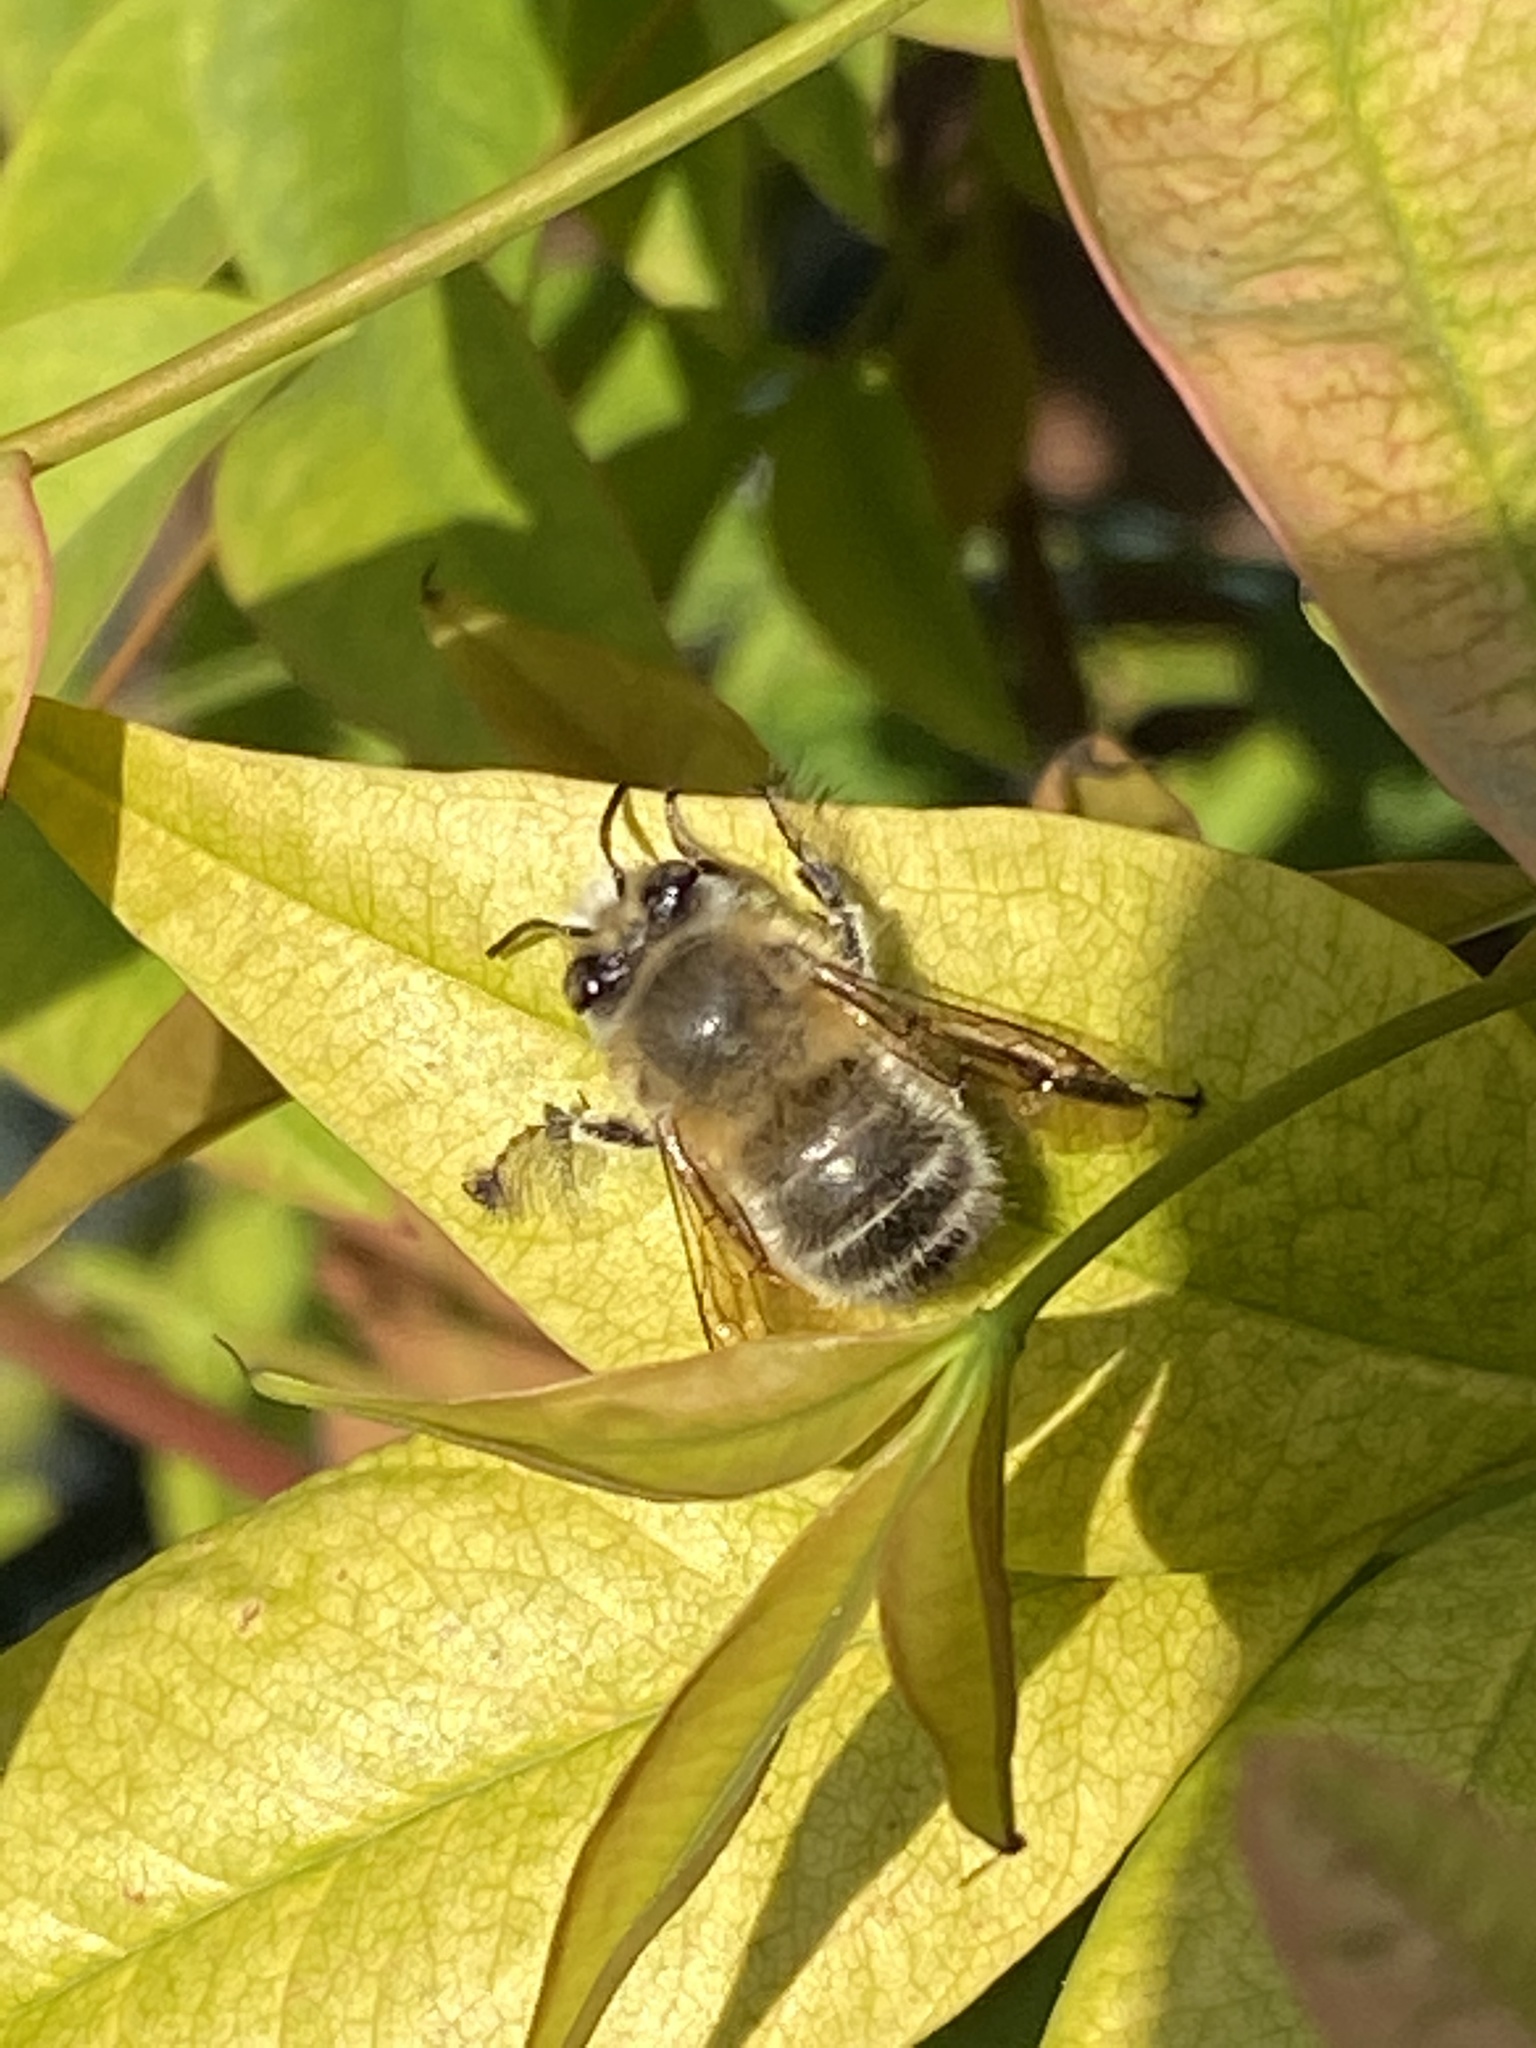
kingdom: Animalia
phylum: Arthropoda
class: Insecta
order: Hymenoptera
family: Apidae
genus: Anthophora
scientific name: Anthophora plumipes
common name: Hairy-footed flower bee
